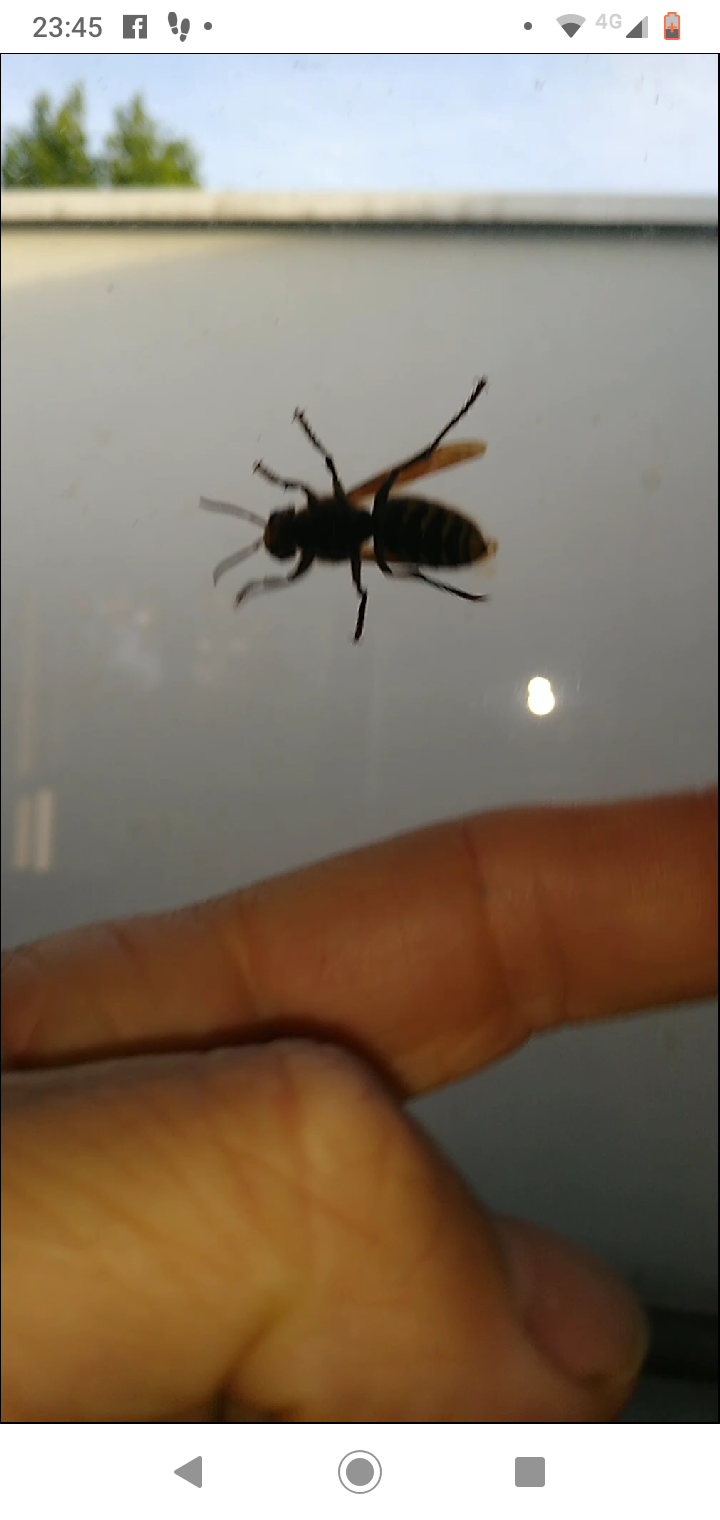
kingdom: Animalia
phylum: Arthropoda
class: Insecta
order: Hymenoptera
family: Vespidae
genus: Vespa
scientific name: Vespa crabro
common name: Hornet
